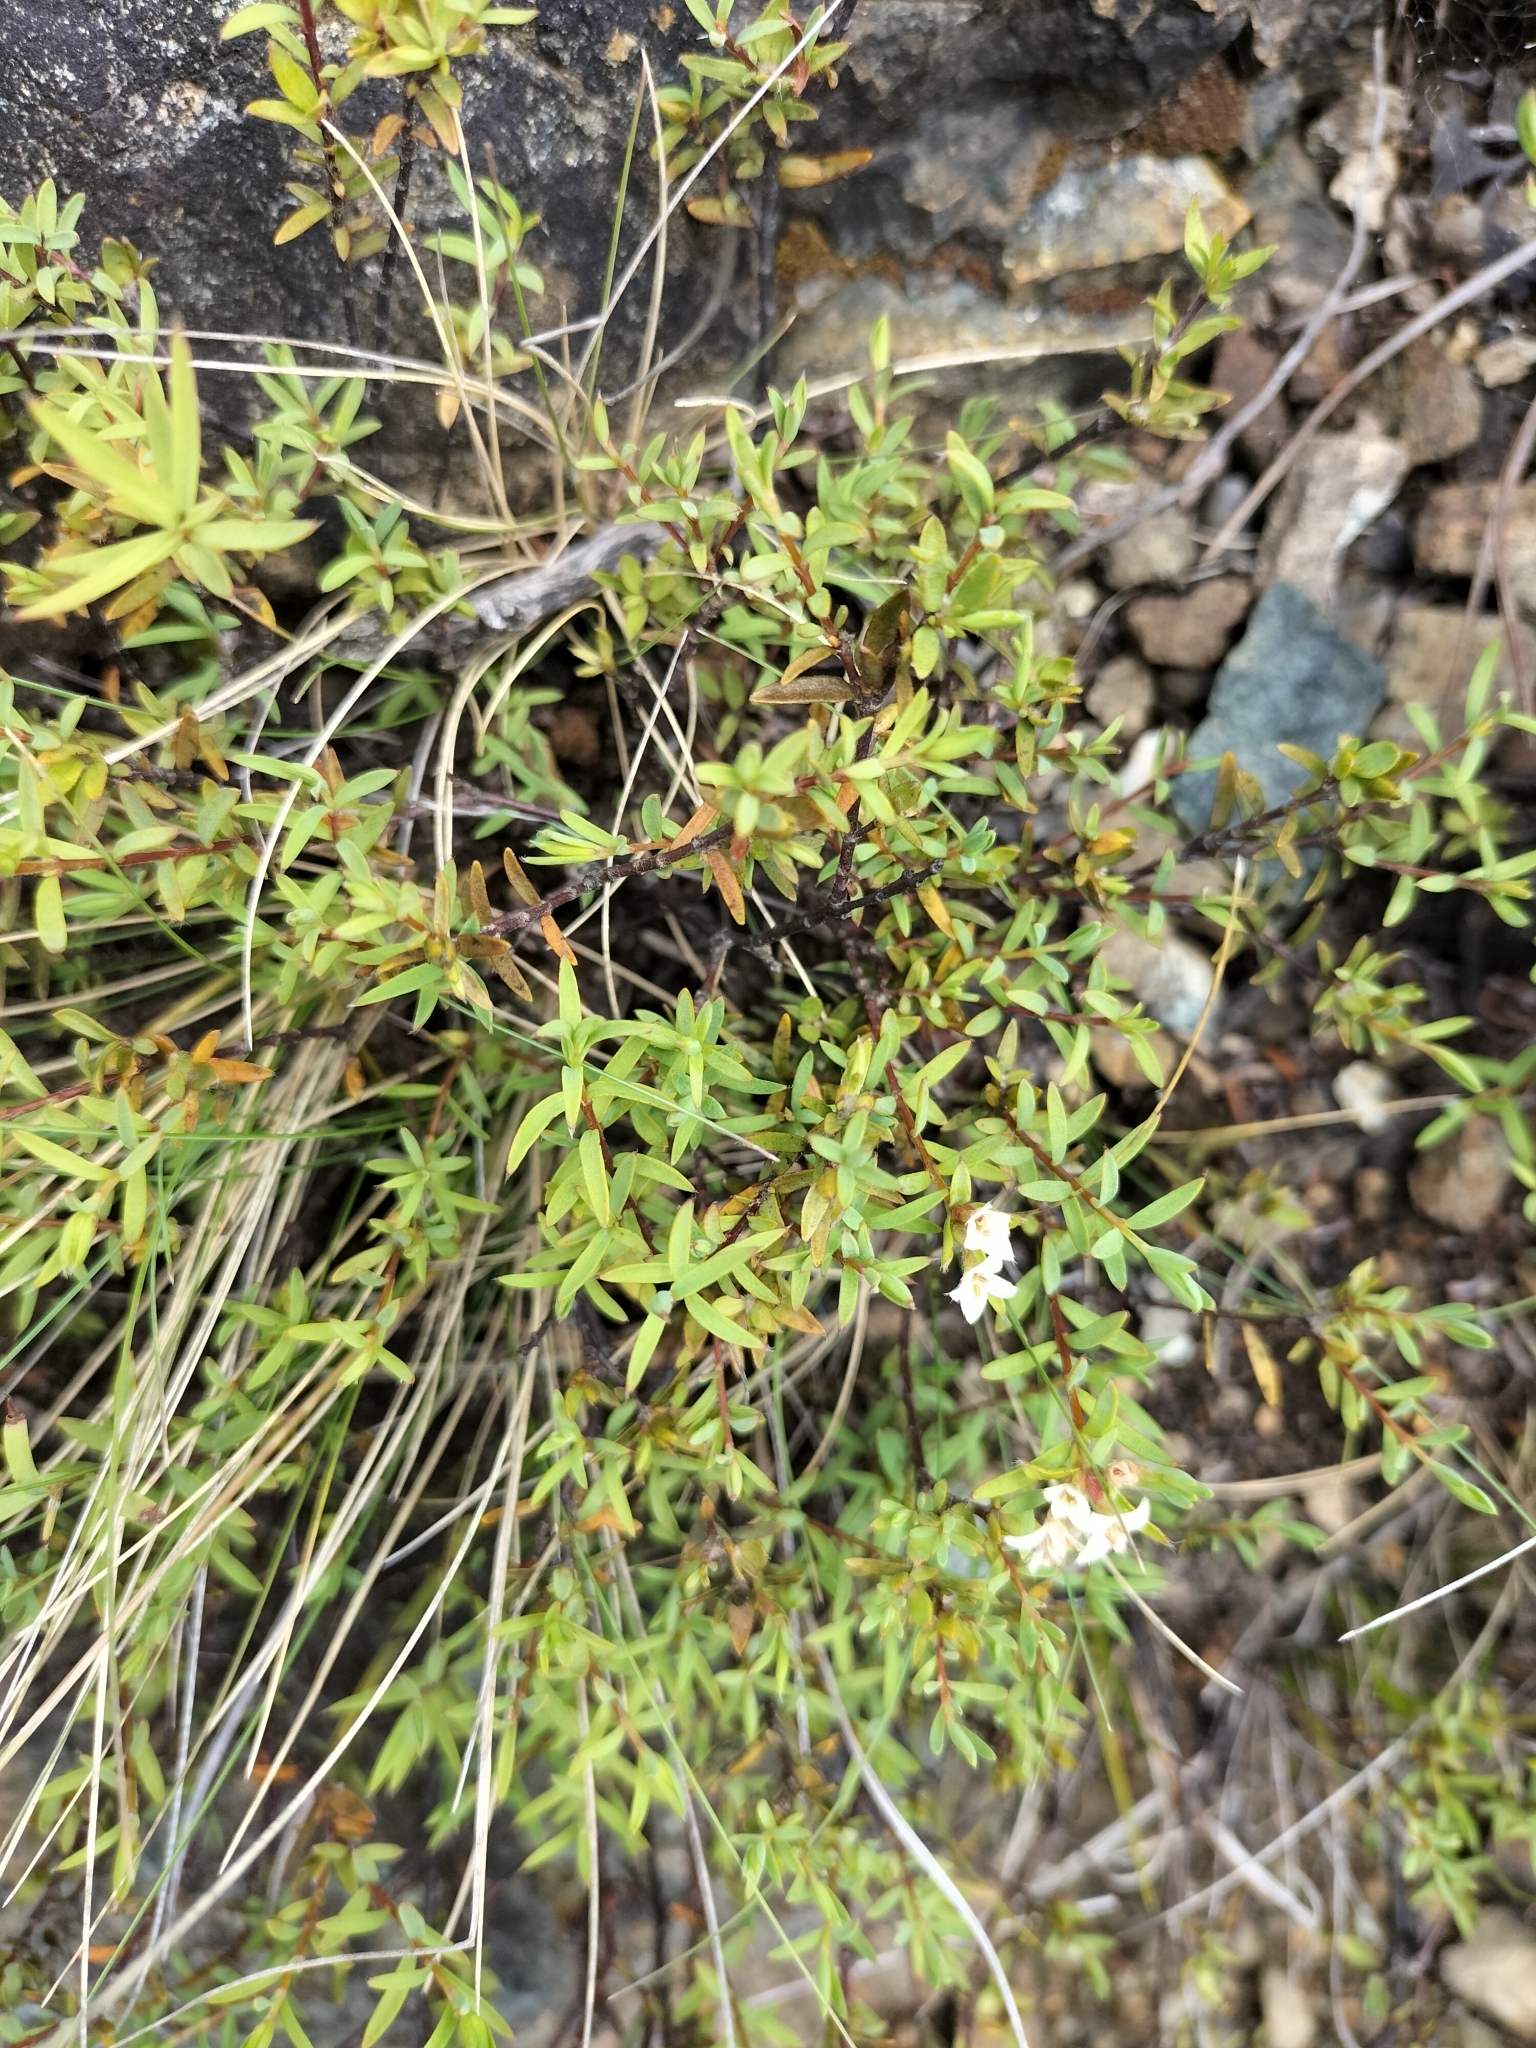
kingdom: Plantae
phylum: Tracheophyta
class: Magnoliopsida
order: Malvales
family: Thymelaeaceae
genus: Pimelea
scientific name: Pimelea suteri
